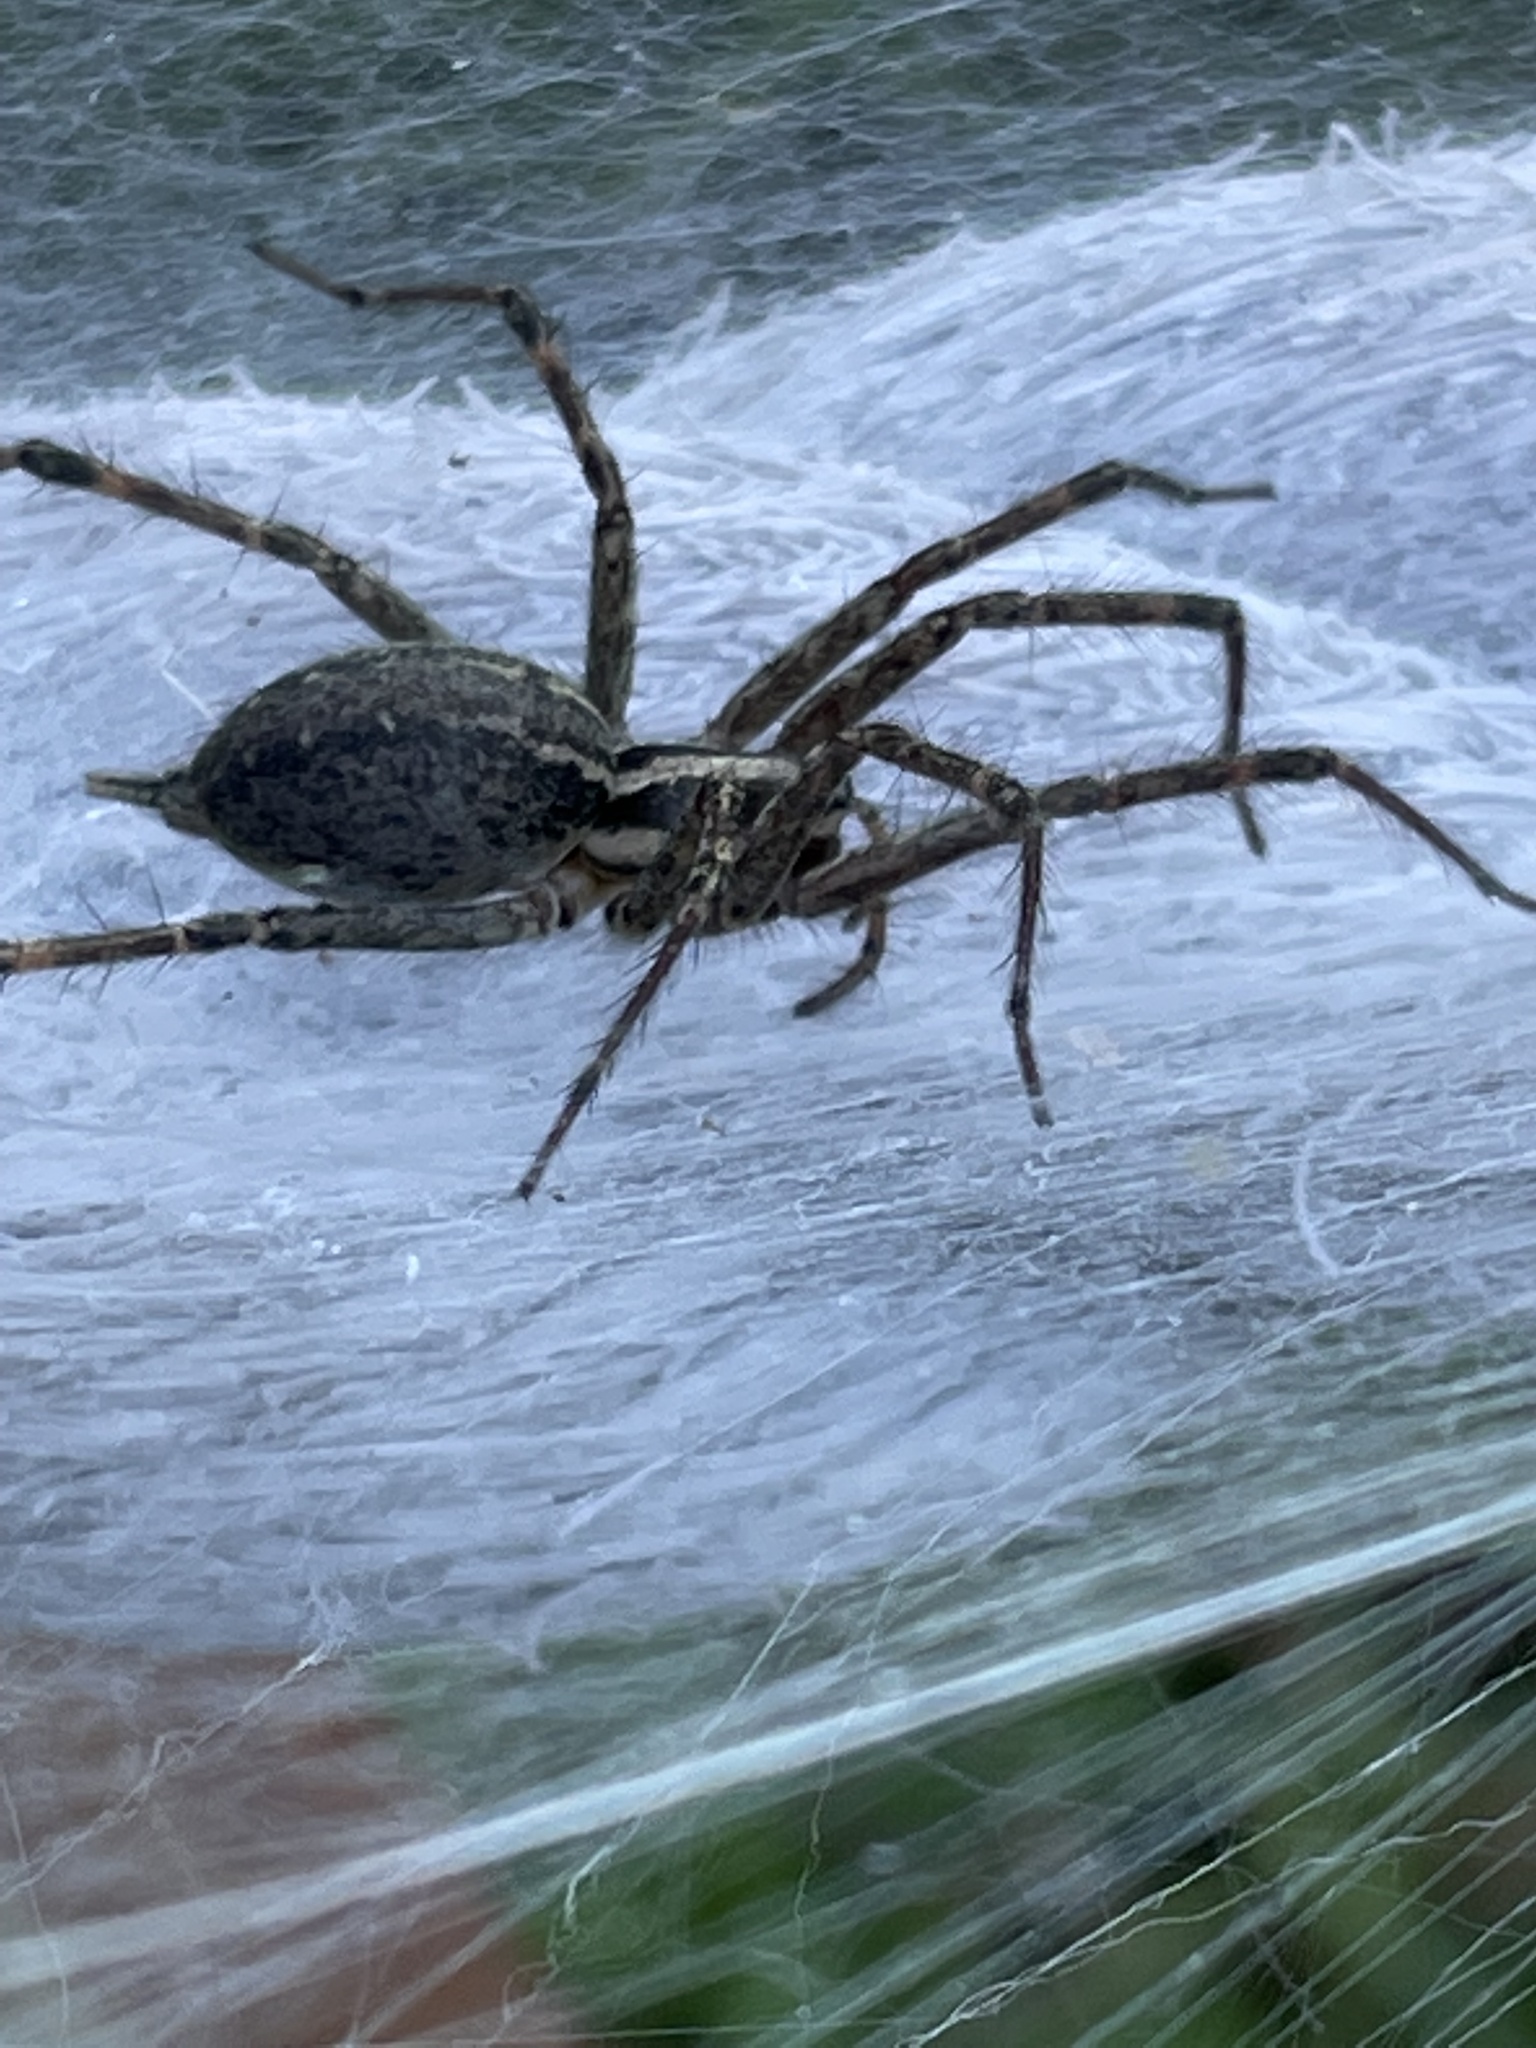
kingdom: Animalia
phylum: Arthropoda
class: Arachnida
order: Araneae
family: Agelenidae
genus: Agelenopsis
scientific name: Agelenopsis
